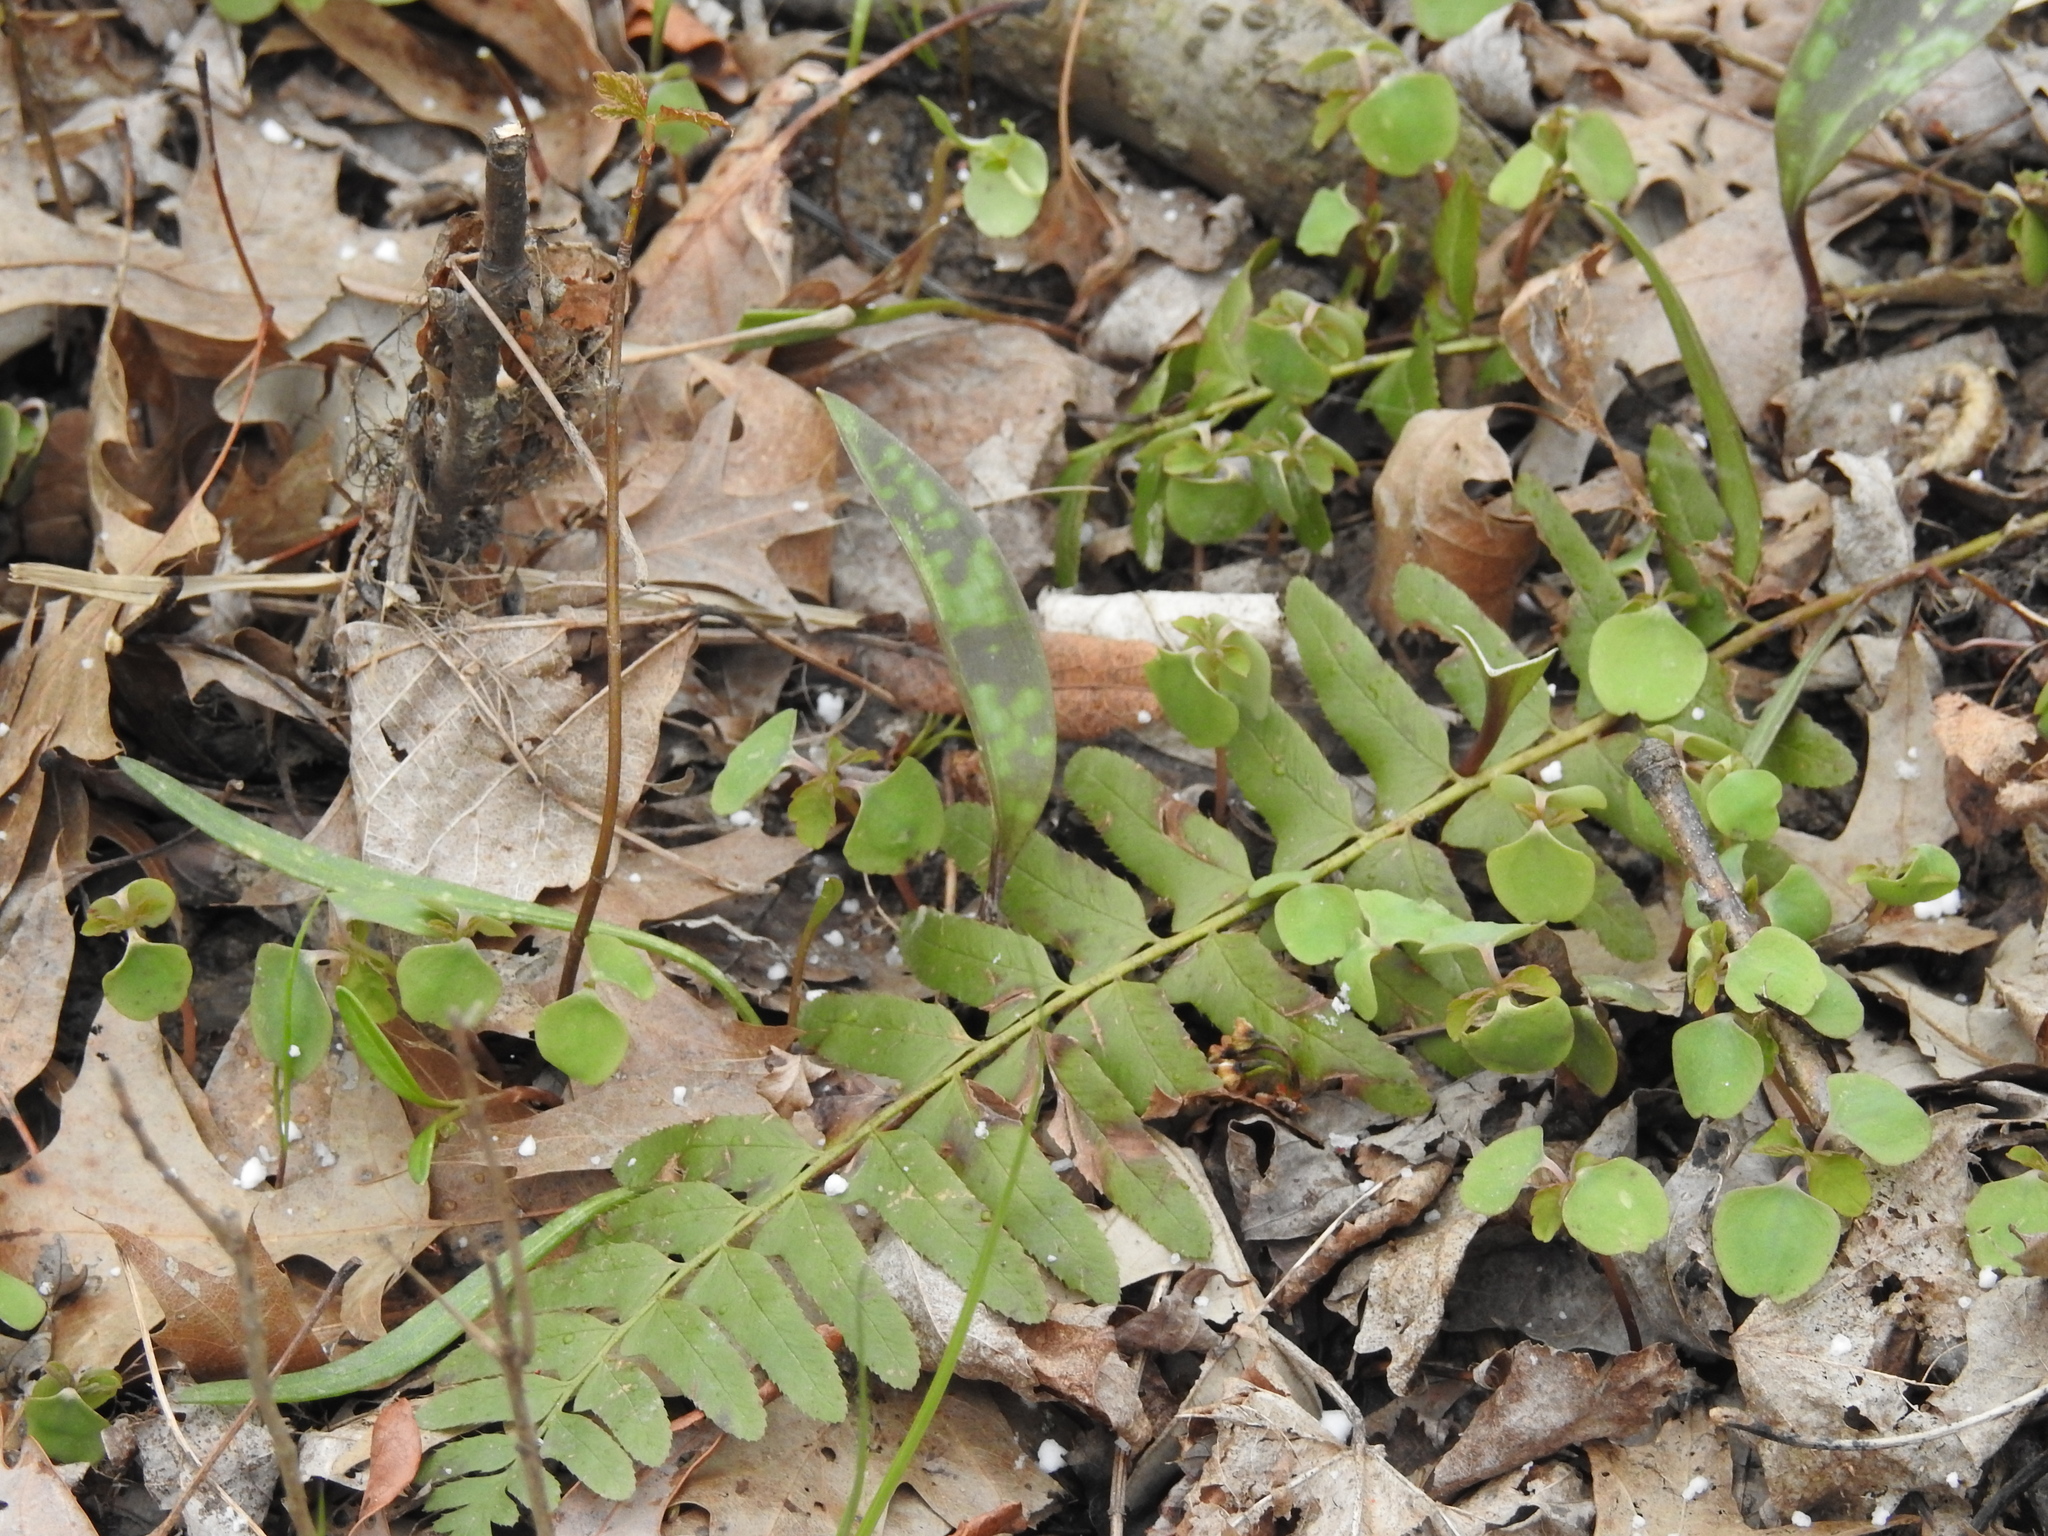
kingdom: Plantae
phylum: Tracheophyta
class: Polypodiopsida
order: Polypodiales
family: Dryopteridaceae
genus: Polystichum
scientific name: Polystichum acrostichoides
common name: Christmas fern
